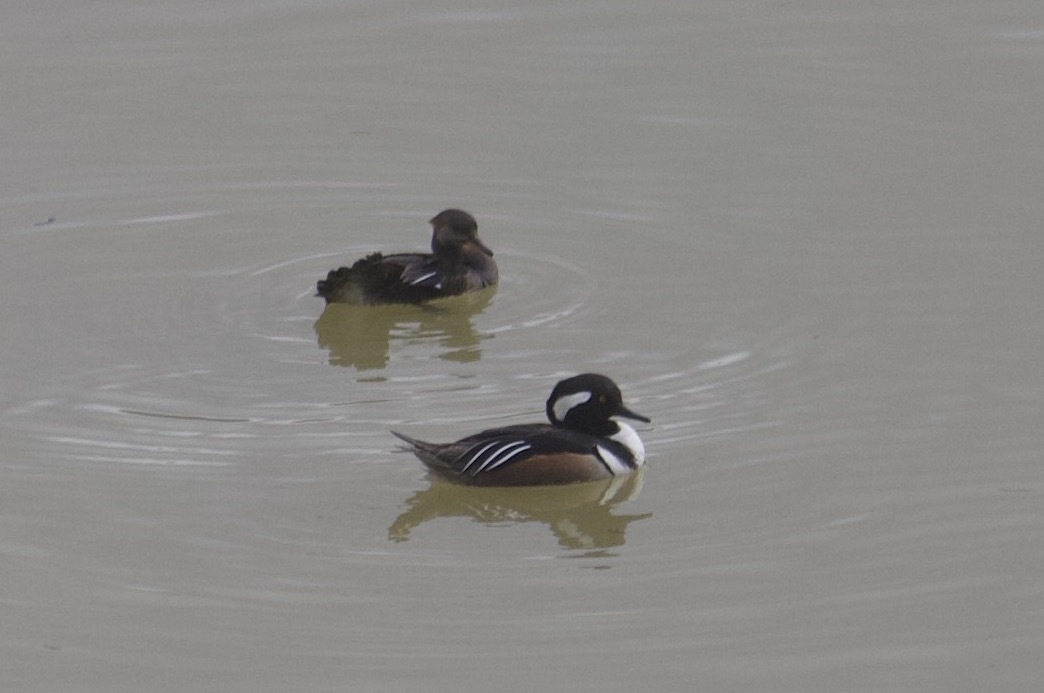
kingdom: Animalia
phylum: Chordata
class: Aves
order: Anseriformes
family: Anatidae
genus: Lophodytes
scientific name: Lophodytes cucullatus
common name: Hooded merganser
